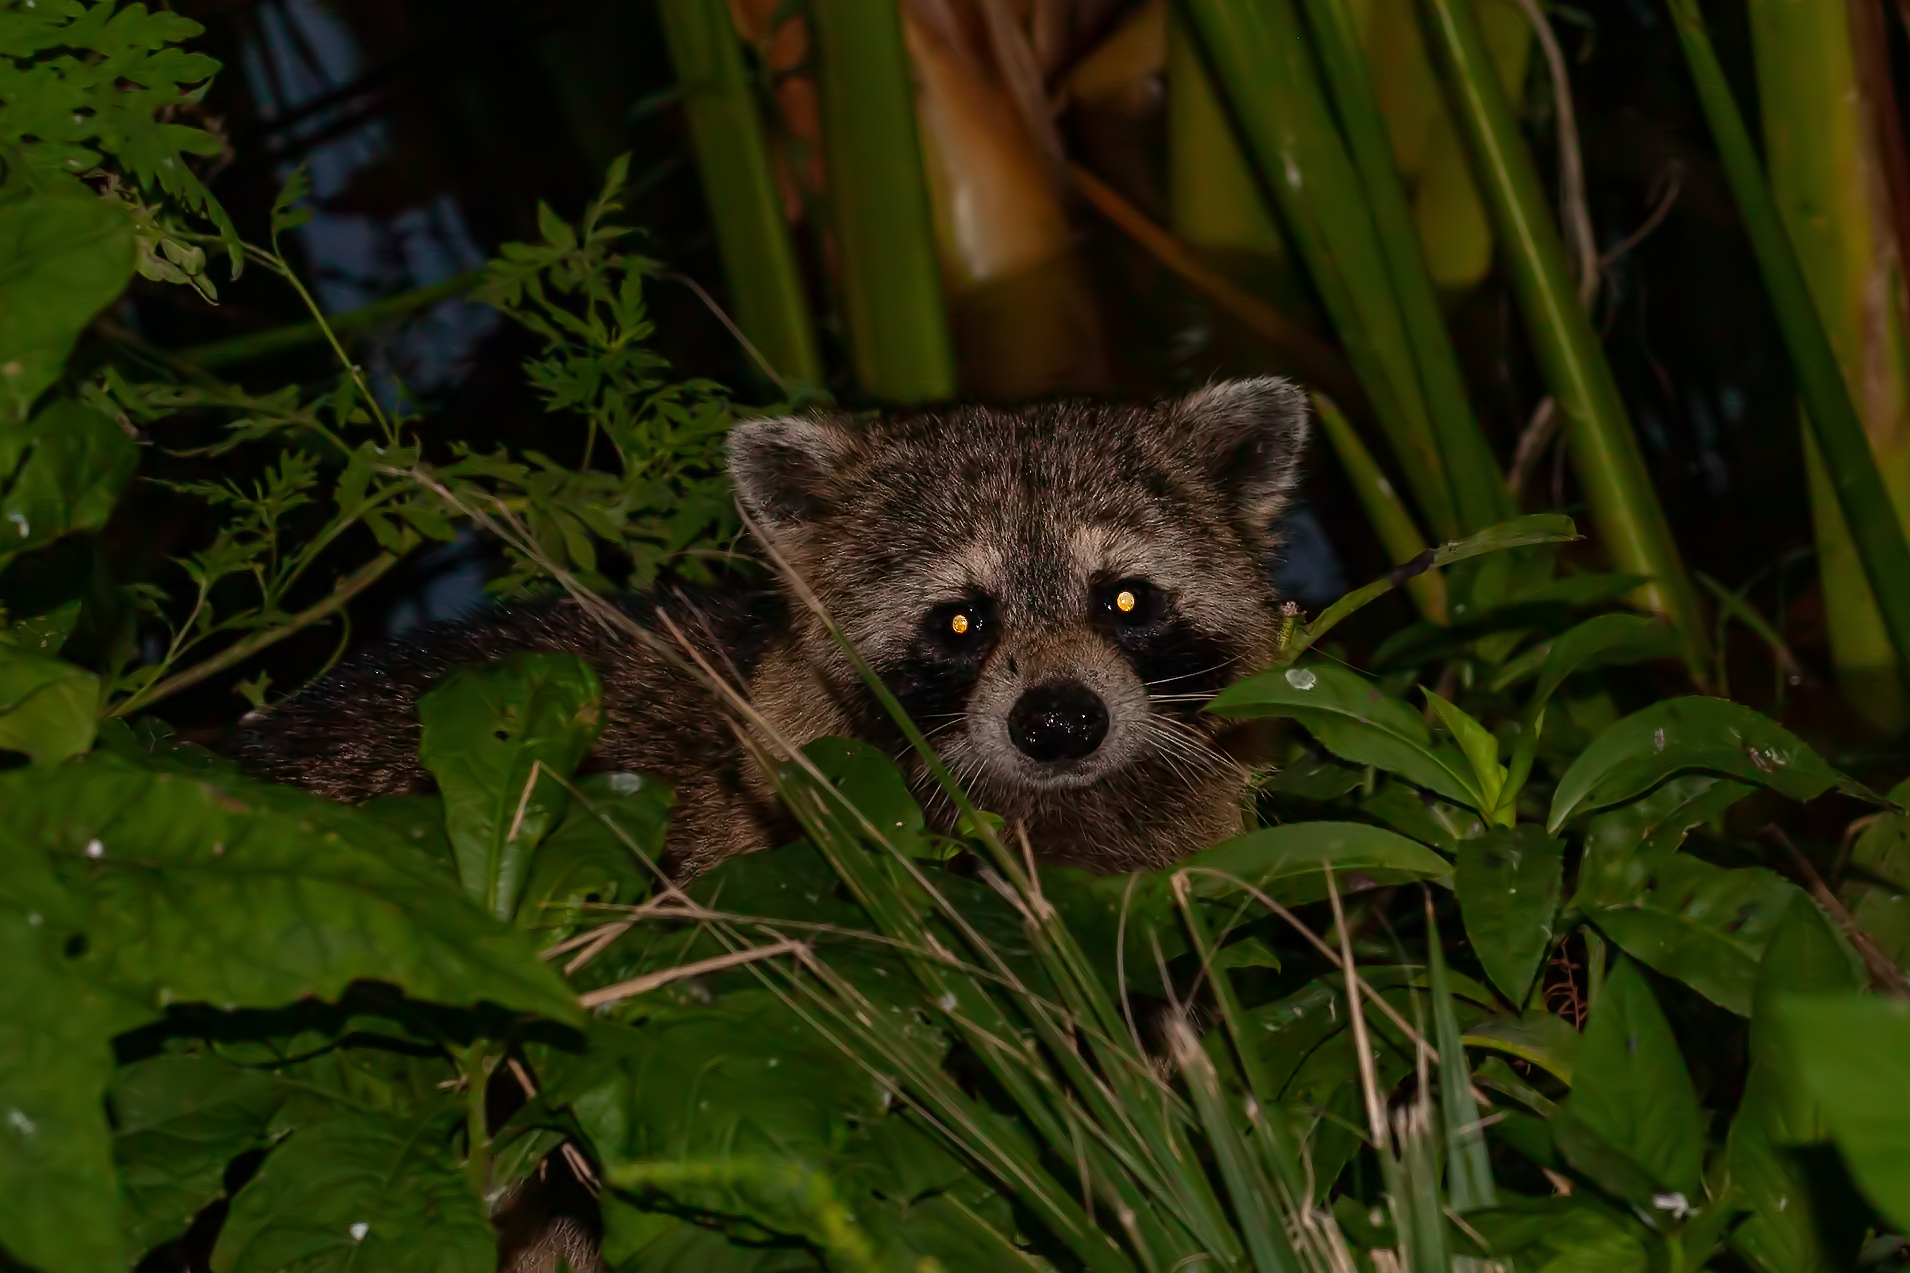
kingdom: Animalia
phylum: Chordata
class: Mammalia
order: Carnivora
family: Procyonidae
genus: Procyon
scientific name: Procyon lotor
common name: Raccoon
